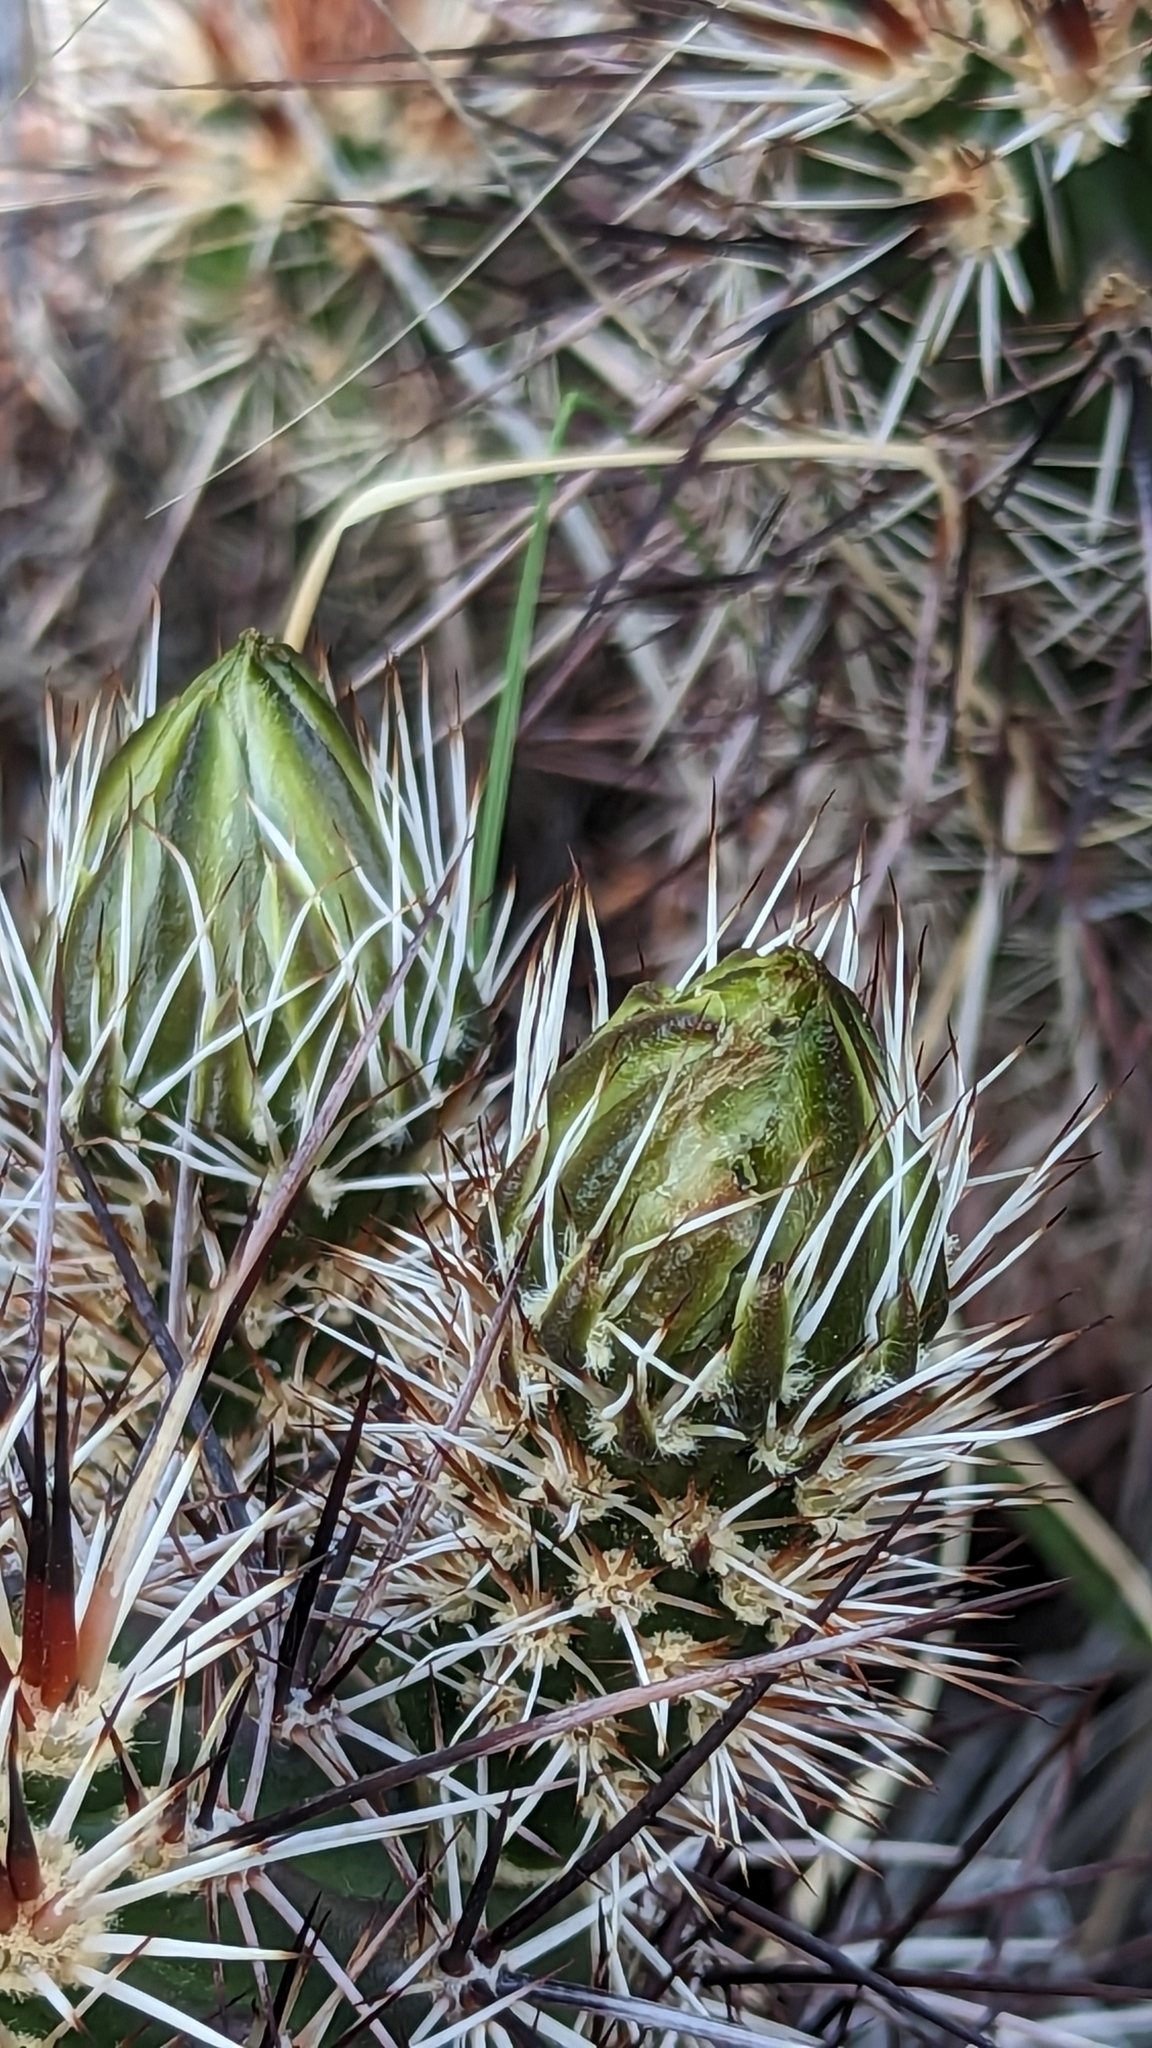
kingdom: Plantae
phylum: Tracheophyta
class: Magnoliopsida
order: Caryophyllales
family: Cactaceae
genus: Echinocereus
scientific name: Echinocereus engelmannii
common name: Engelmann's hedgehog cactus
